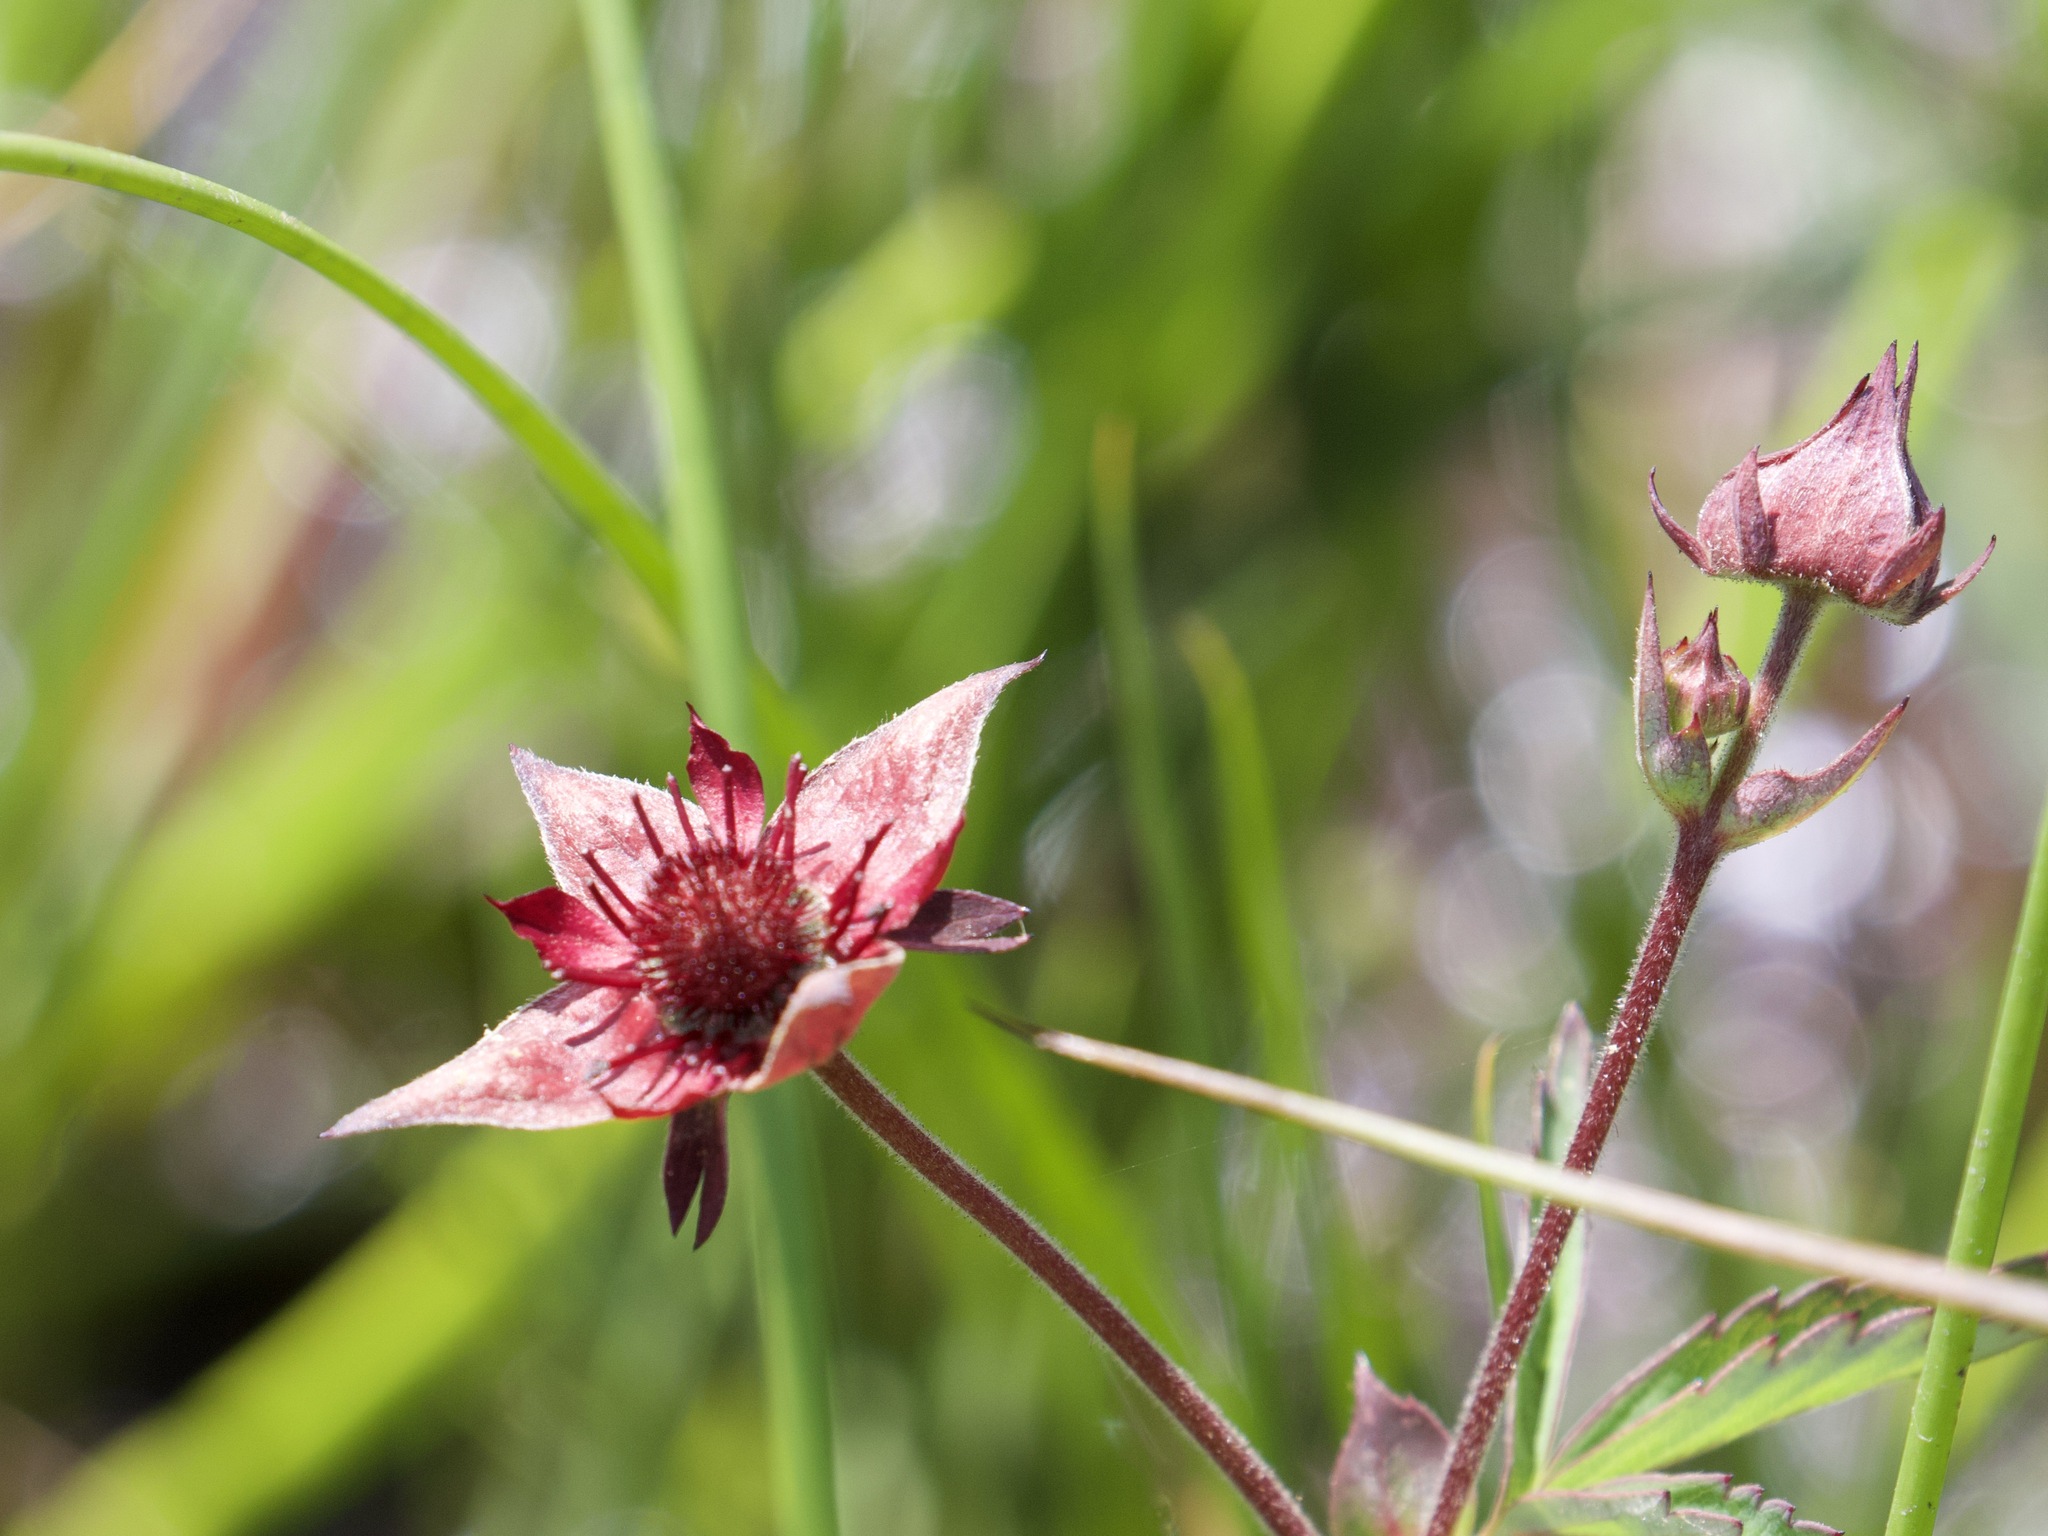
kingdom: Plantae
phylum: Tracheophyta
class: Magnoliopsida
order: Rosales
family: Rosaceae
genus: Comarum
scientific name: Comarum palustre
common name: Marsh cinquefoil
